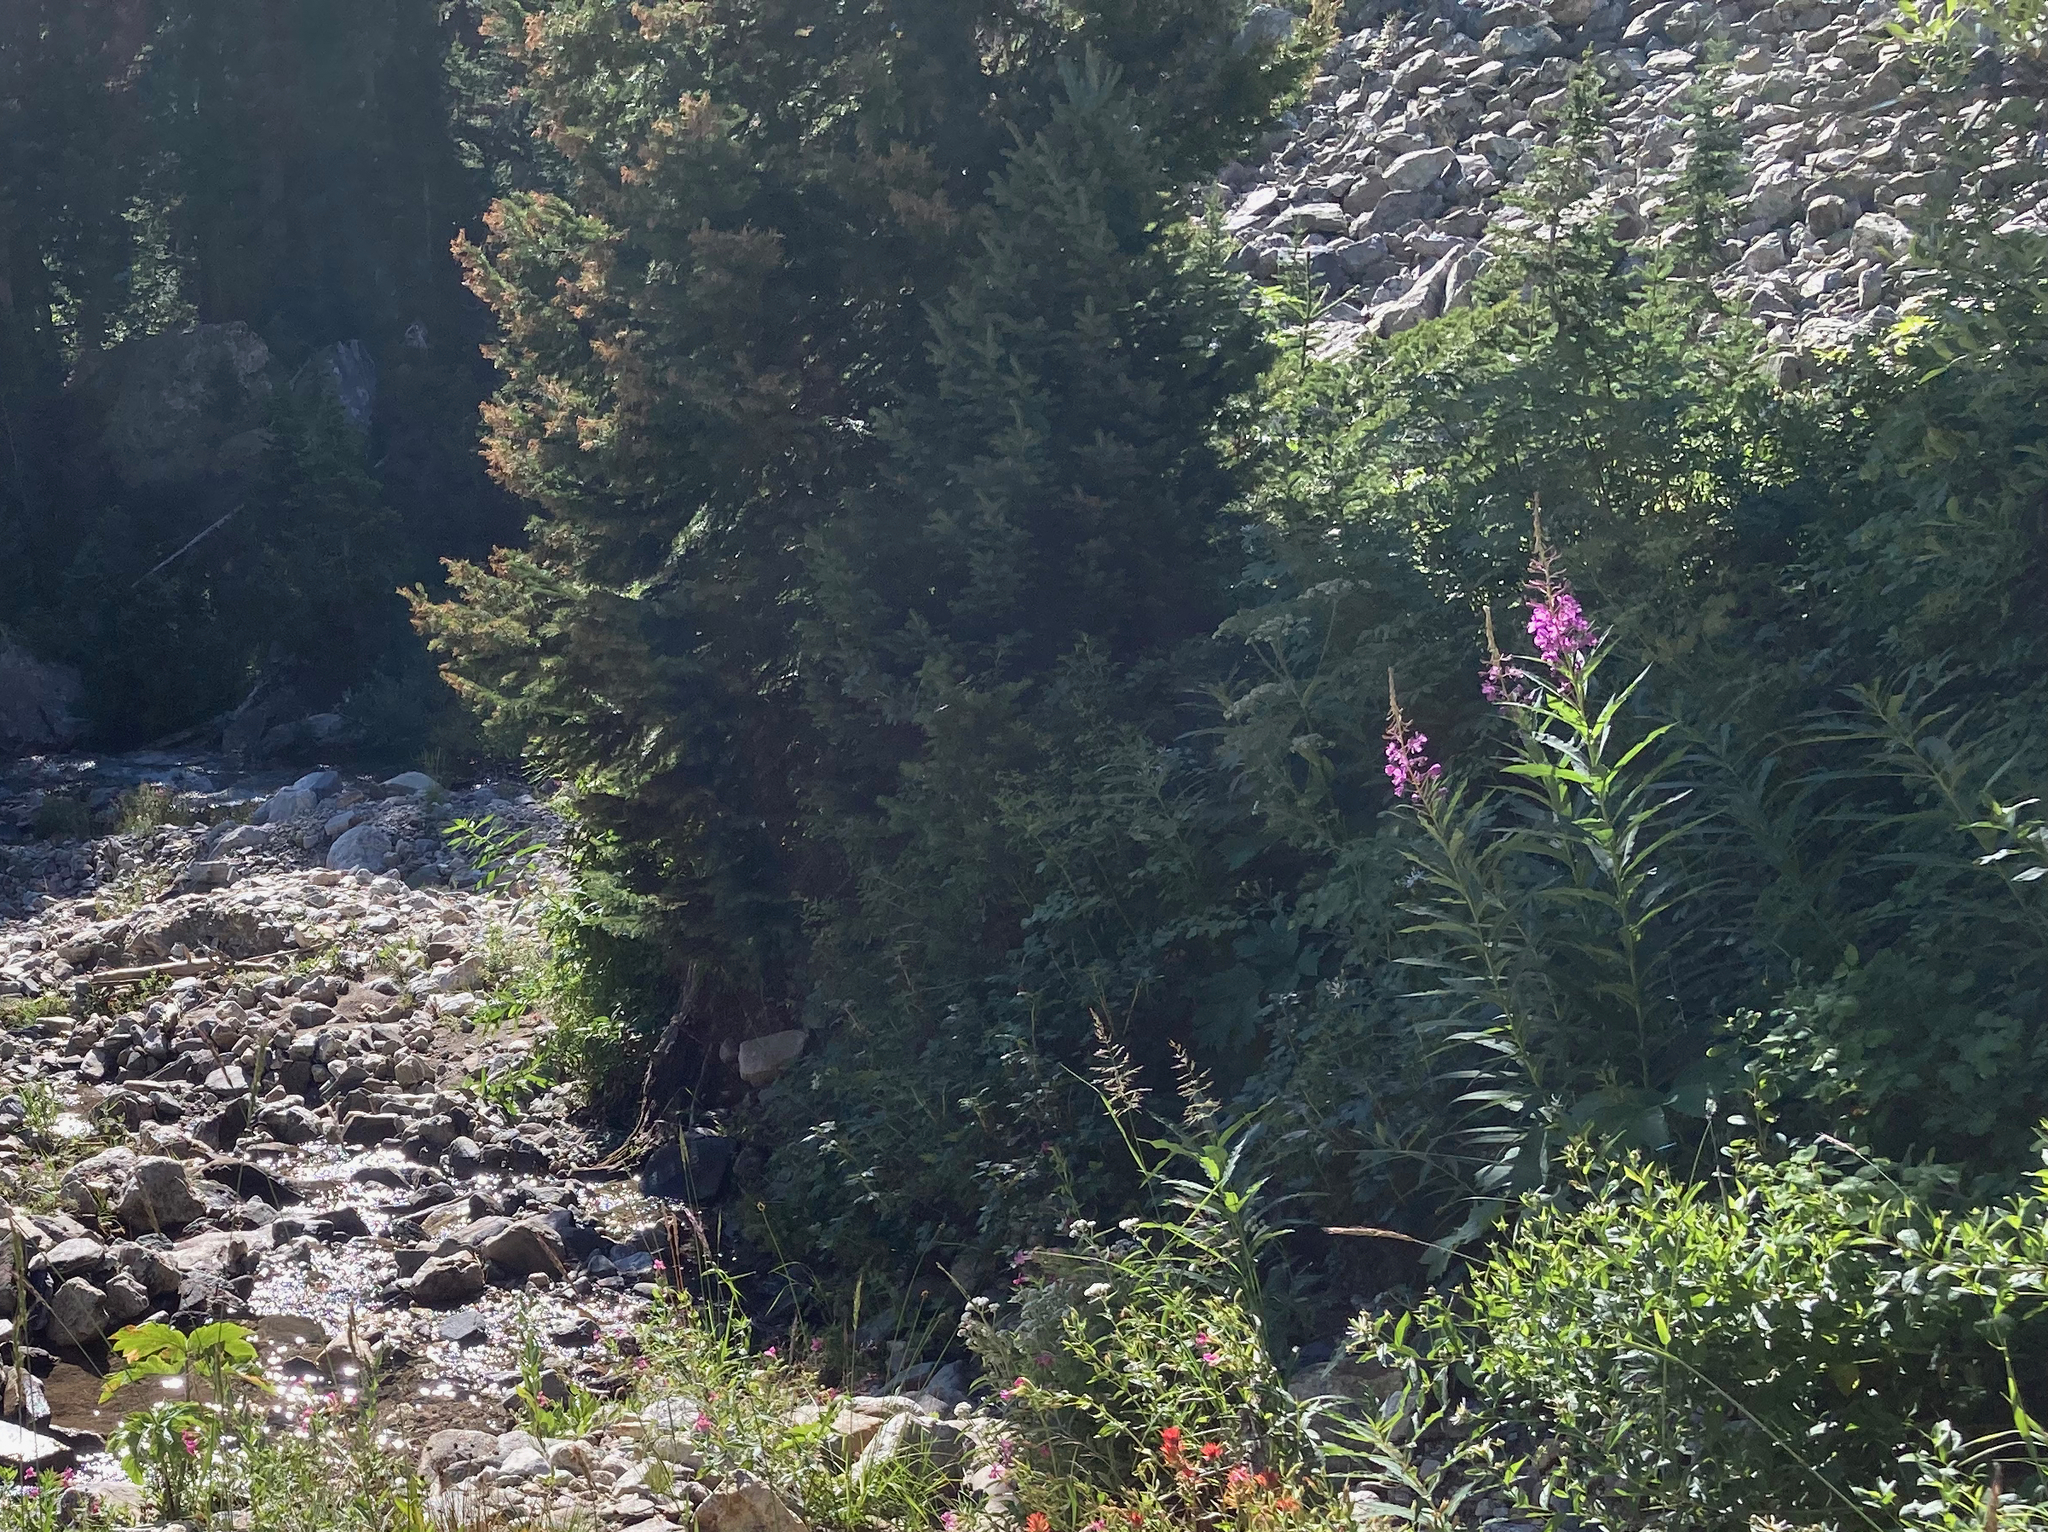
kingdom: Plantae
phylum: Tracheophyta
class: Magnoliopsida
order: Myrtales
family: Onagraceae
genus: Chamaenerion
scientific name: Chamaenerion angustifolium
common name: Fireweed
